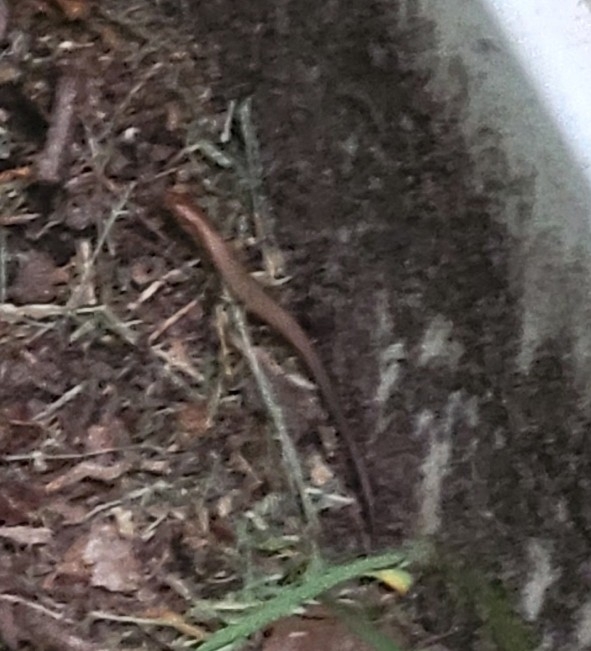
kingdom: Animalia
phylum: Chordata
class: Squamata
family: Scincidae
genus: Scincella
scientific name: Scincella lateralis
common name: Ground skink
